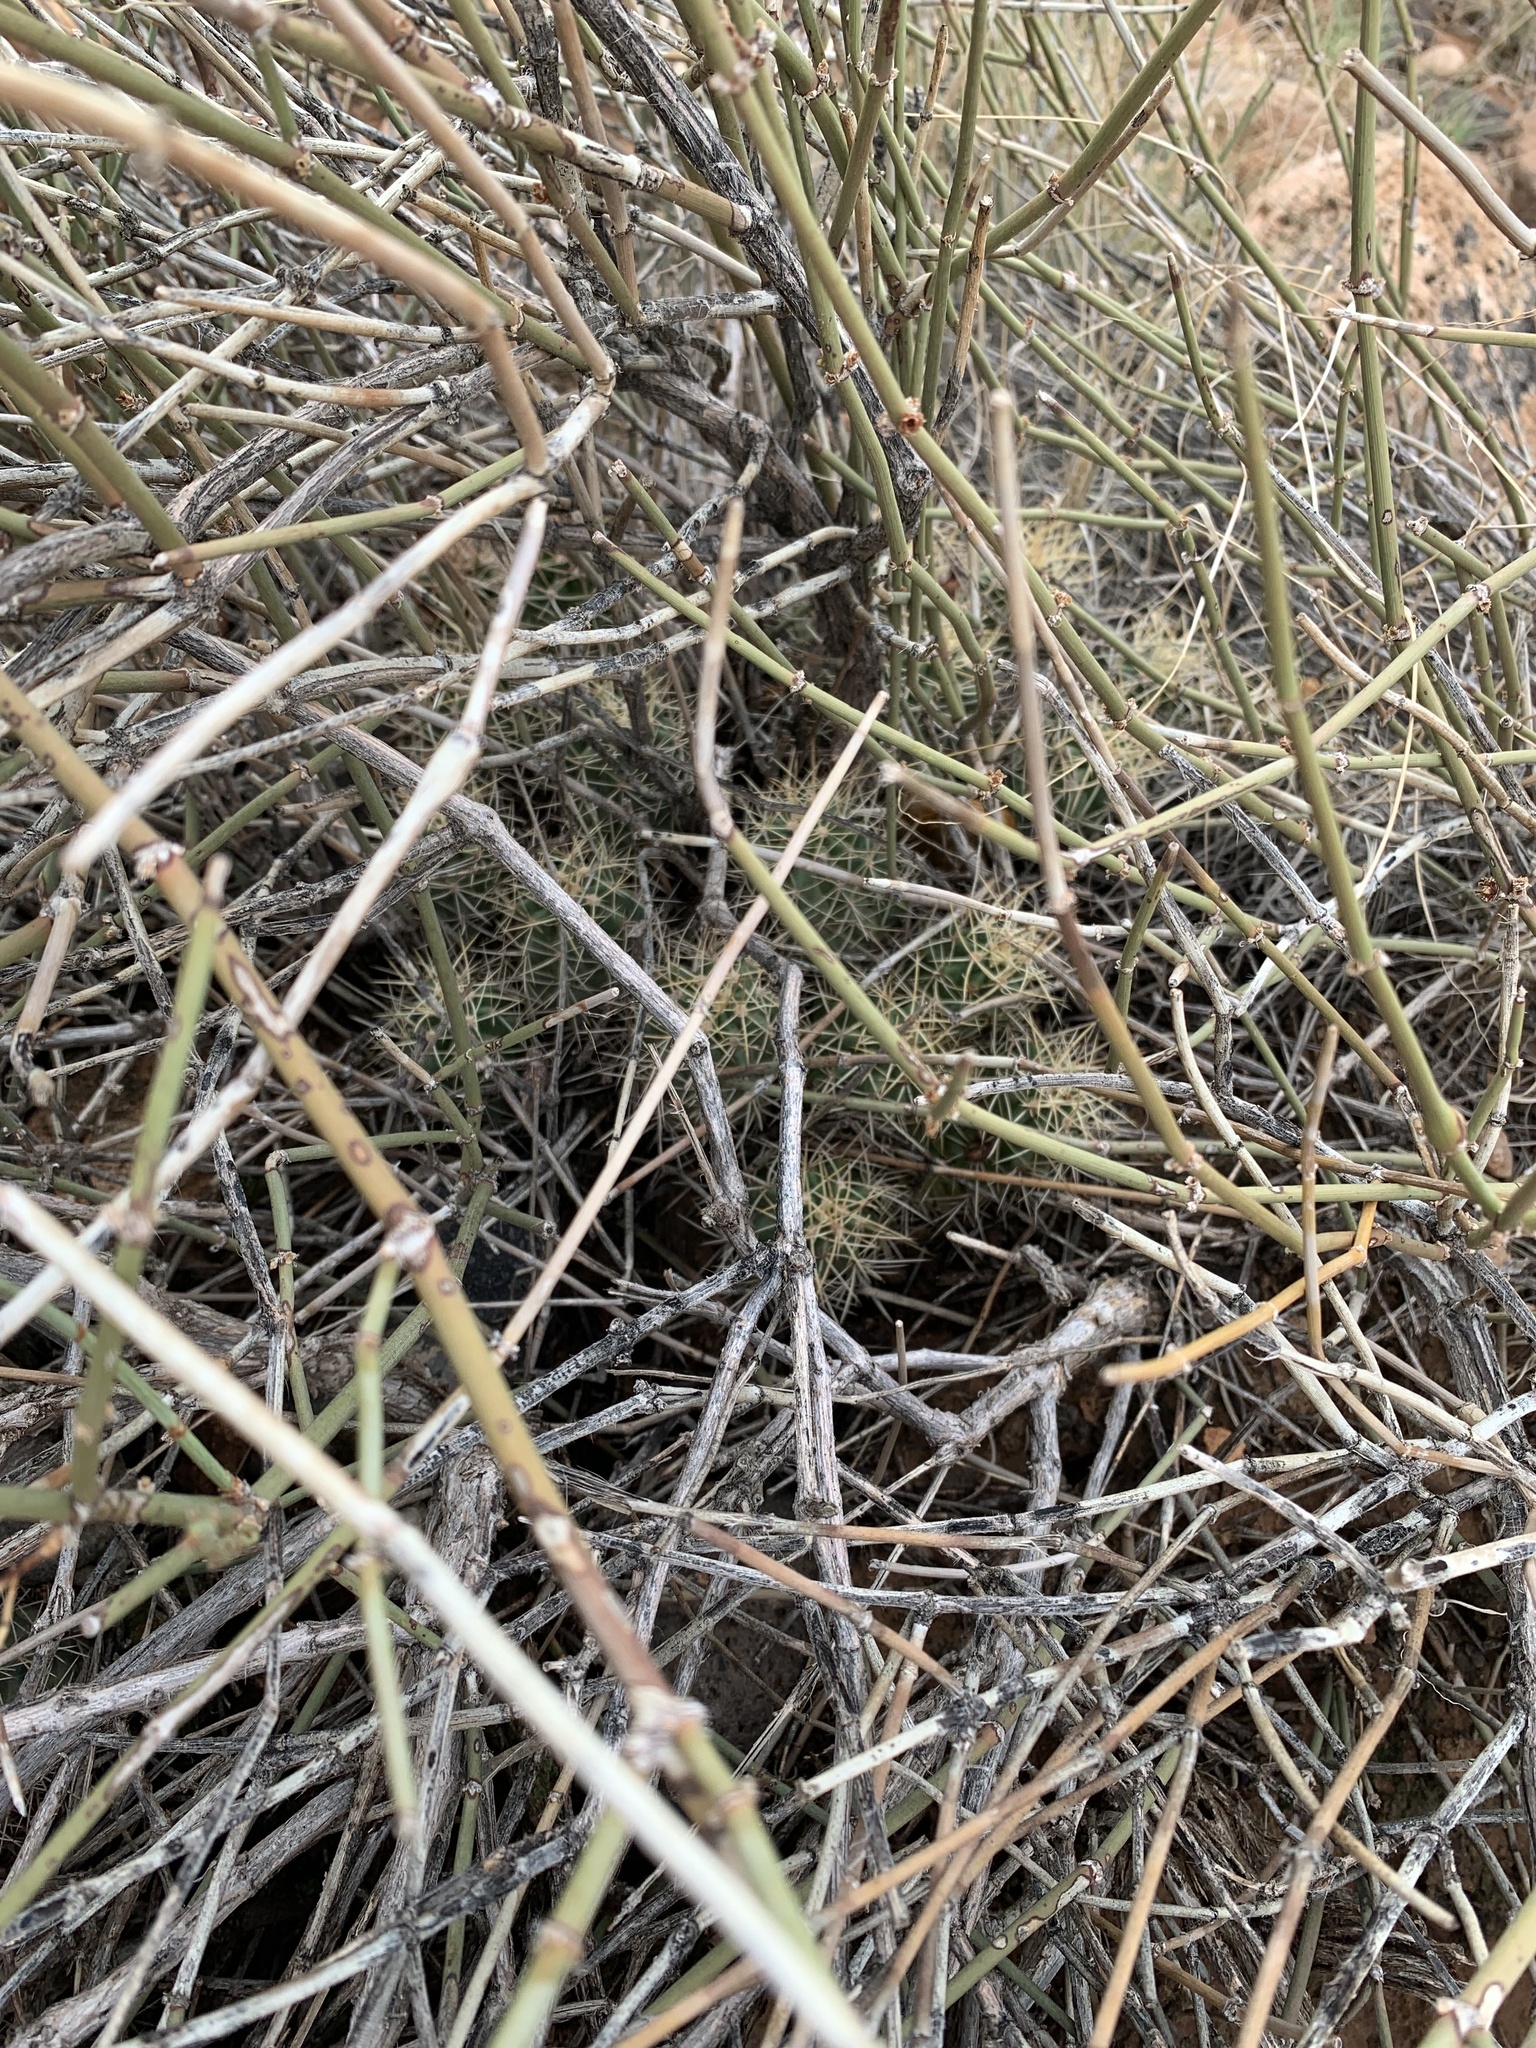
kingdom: Plantae
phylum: Tracheophyta
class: Magnoliopsida
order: Caryophyllales
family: Cactaceae
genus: Echinocereus
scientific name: Echinocereus triglochidiatus
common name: Claretcup hedgehog
